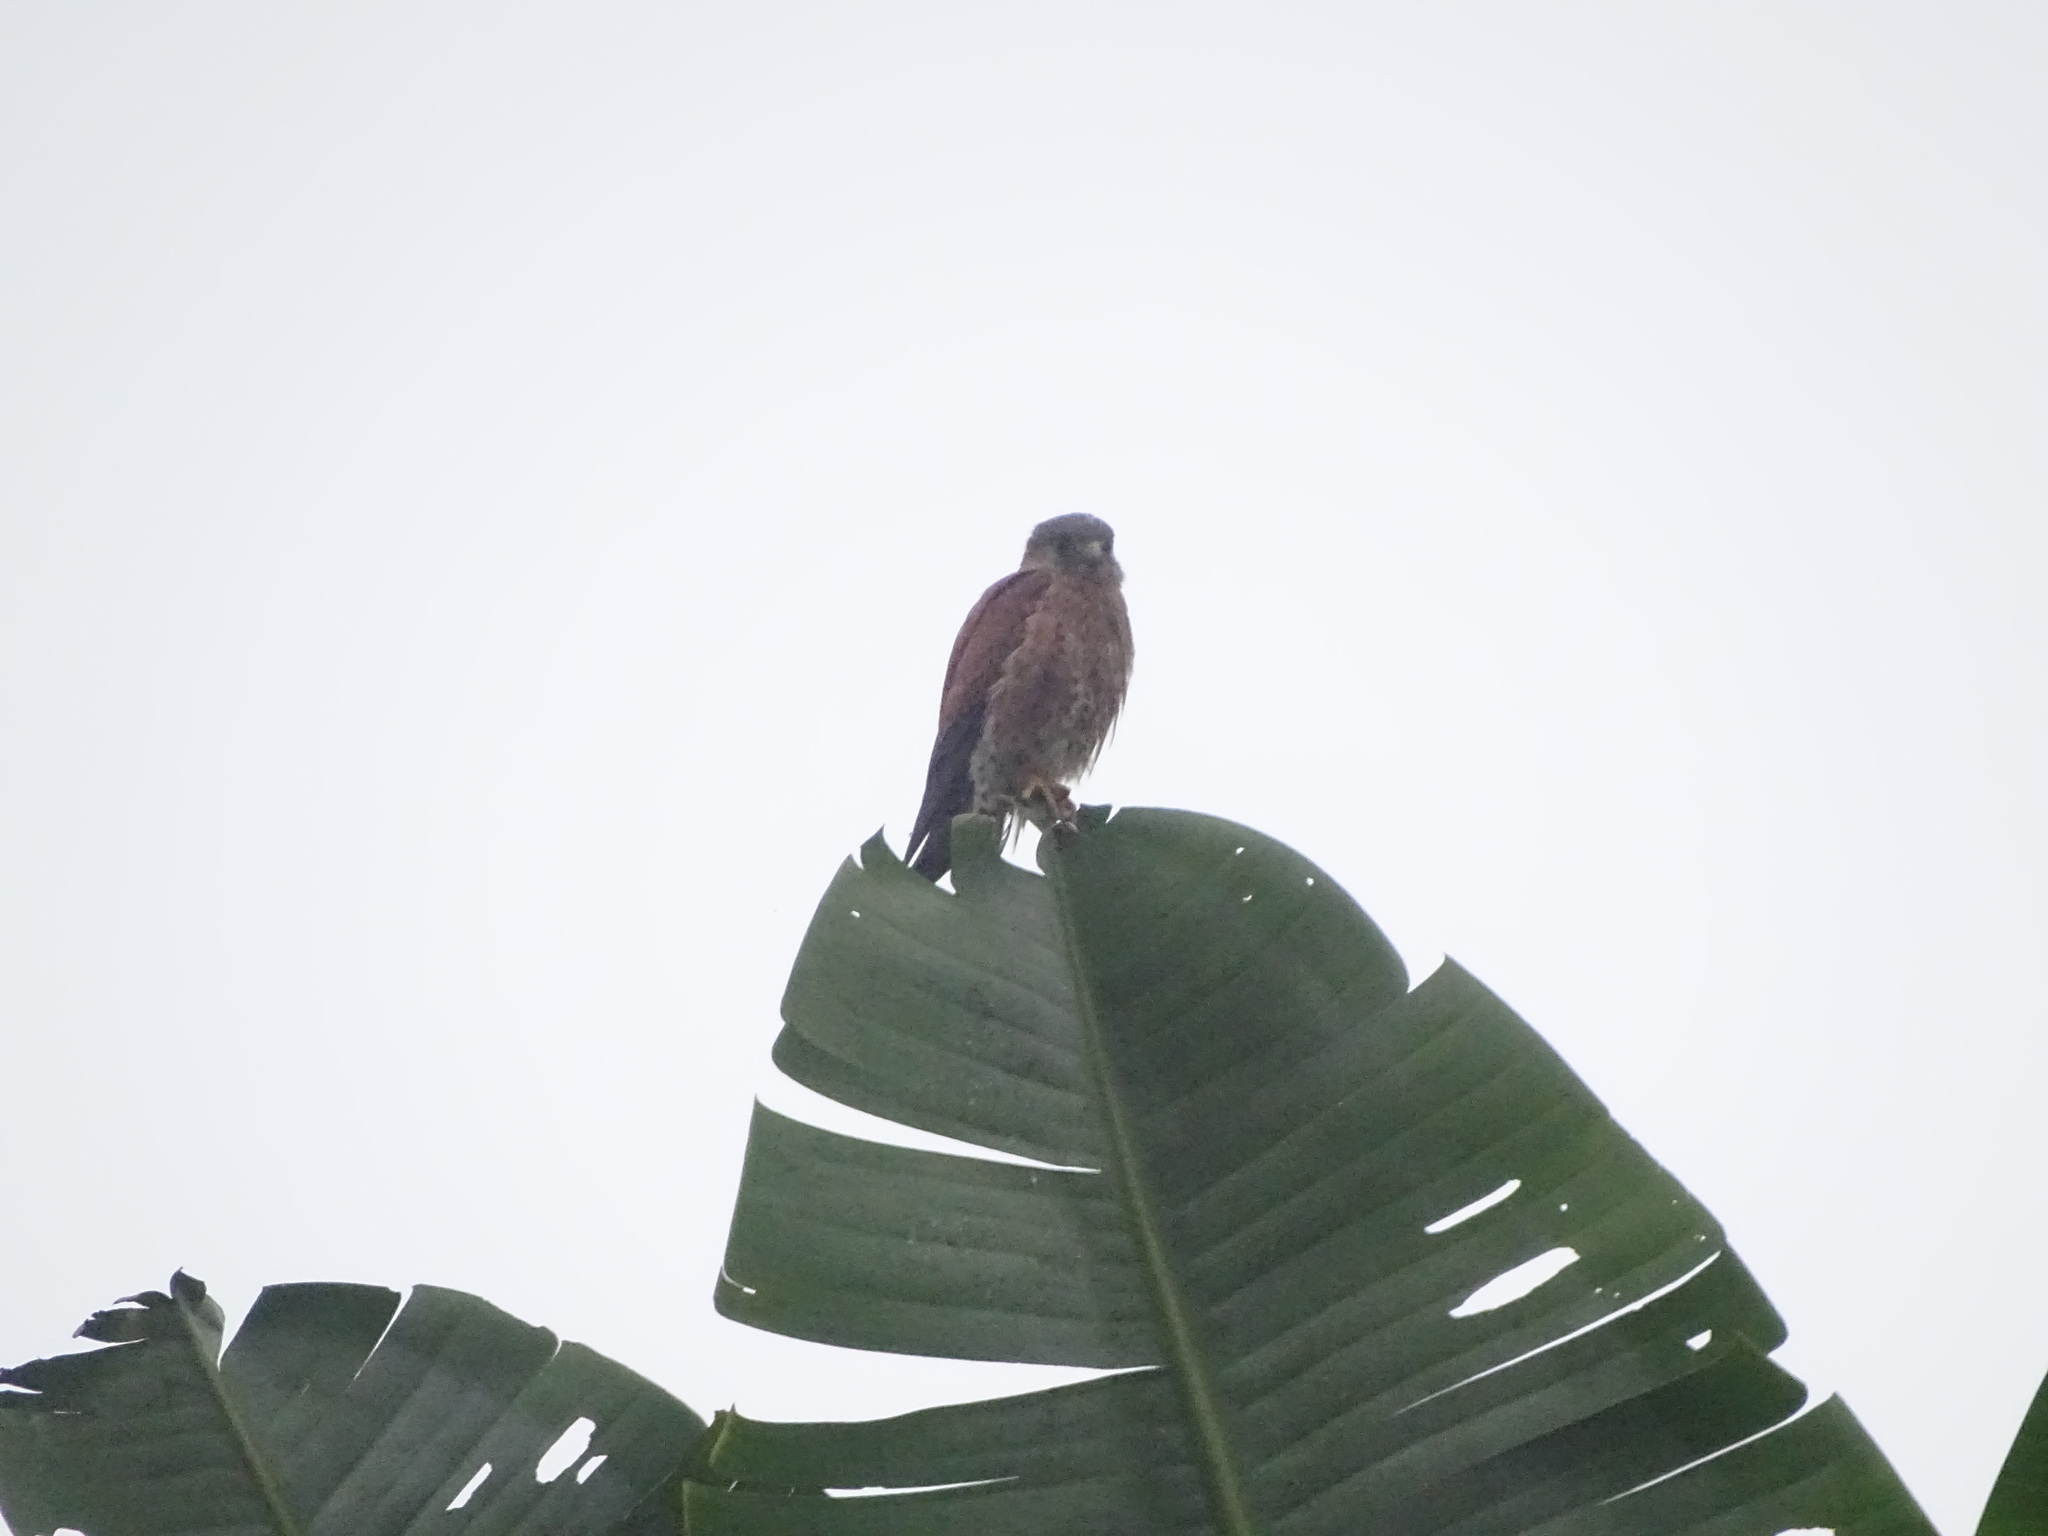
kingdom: Animalia
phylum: Chordata
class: Aves
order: Falconiformes
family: Falconidae
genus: Falco
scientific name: Falco newtoni
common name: Malagasy kestrel
